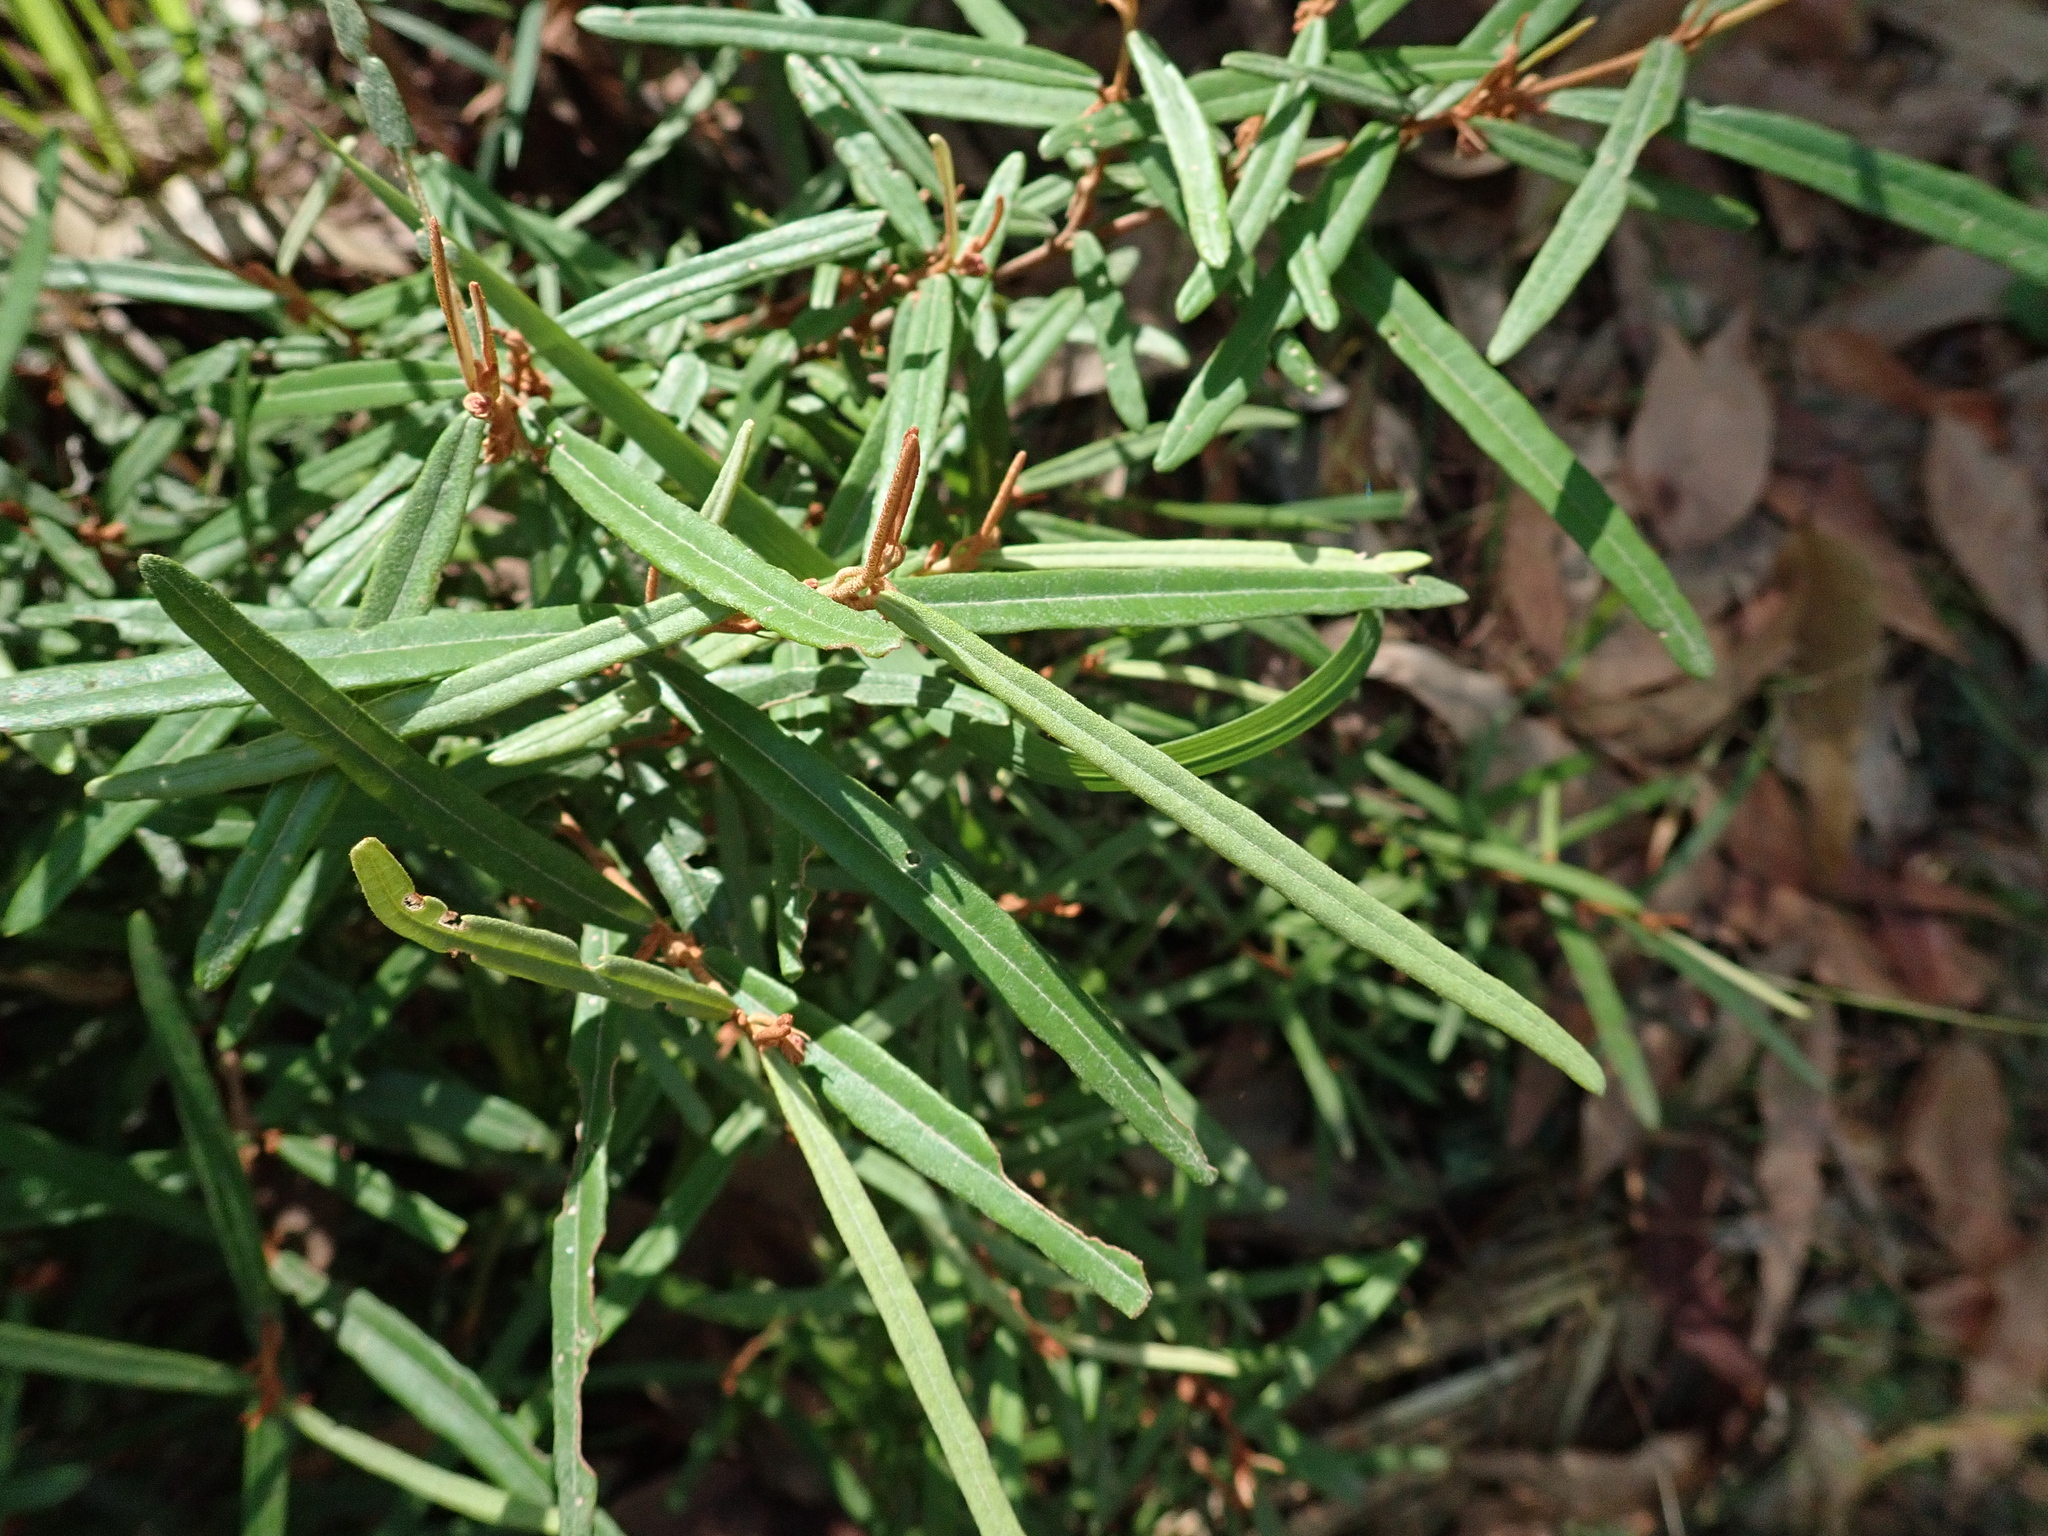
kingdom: Plantae
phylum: Tracheophyta
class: Magnoliopsida
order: Malvales
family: Malvaceae
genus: Lasiopetalum
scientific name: Lasiopetalum parviflorum
